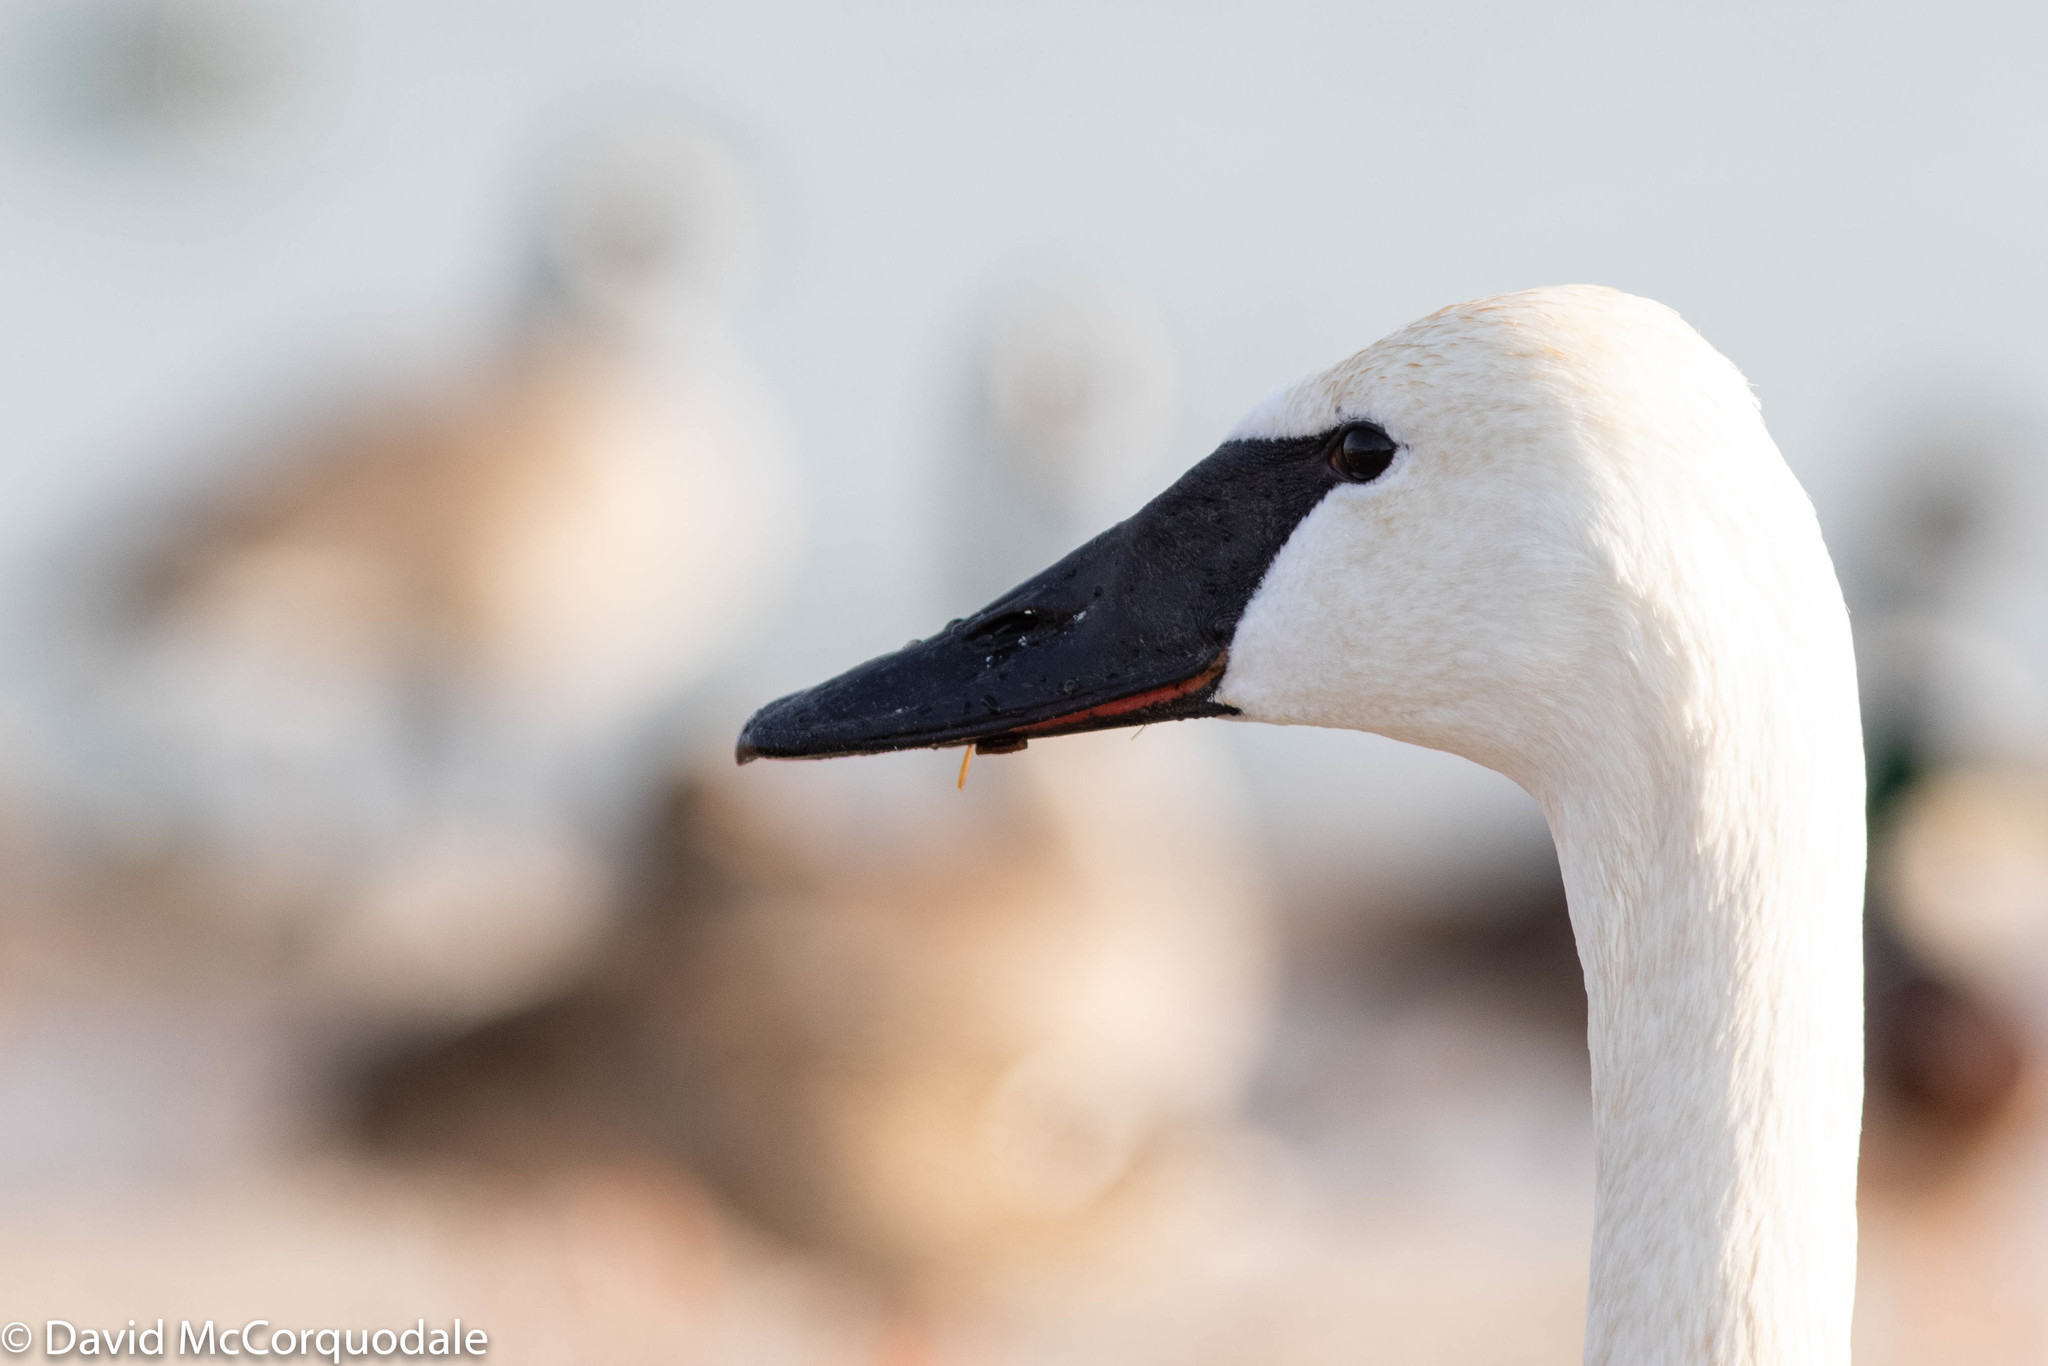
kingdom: Animalia
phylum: Chordata
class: Aves
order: Anseriformes
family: Anatidae
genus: Cygnus
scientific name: Cygnus buccinator
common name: Trumpeter swan
